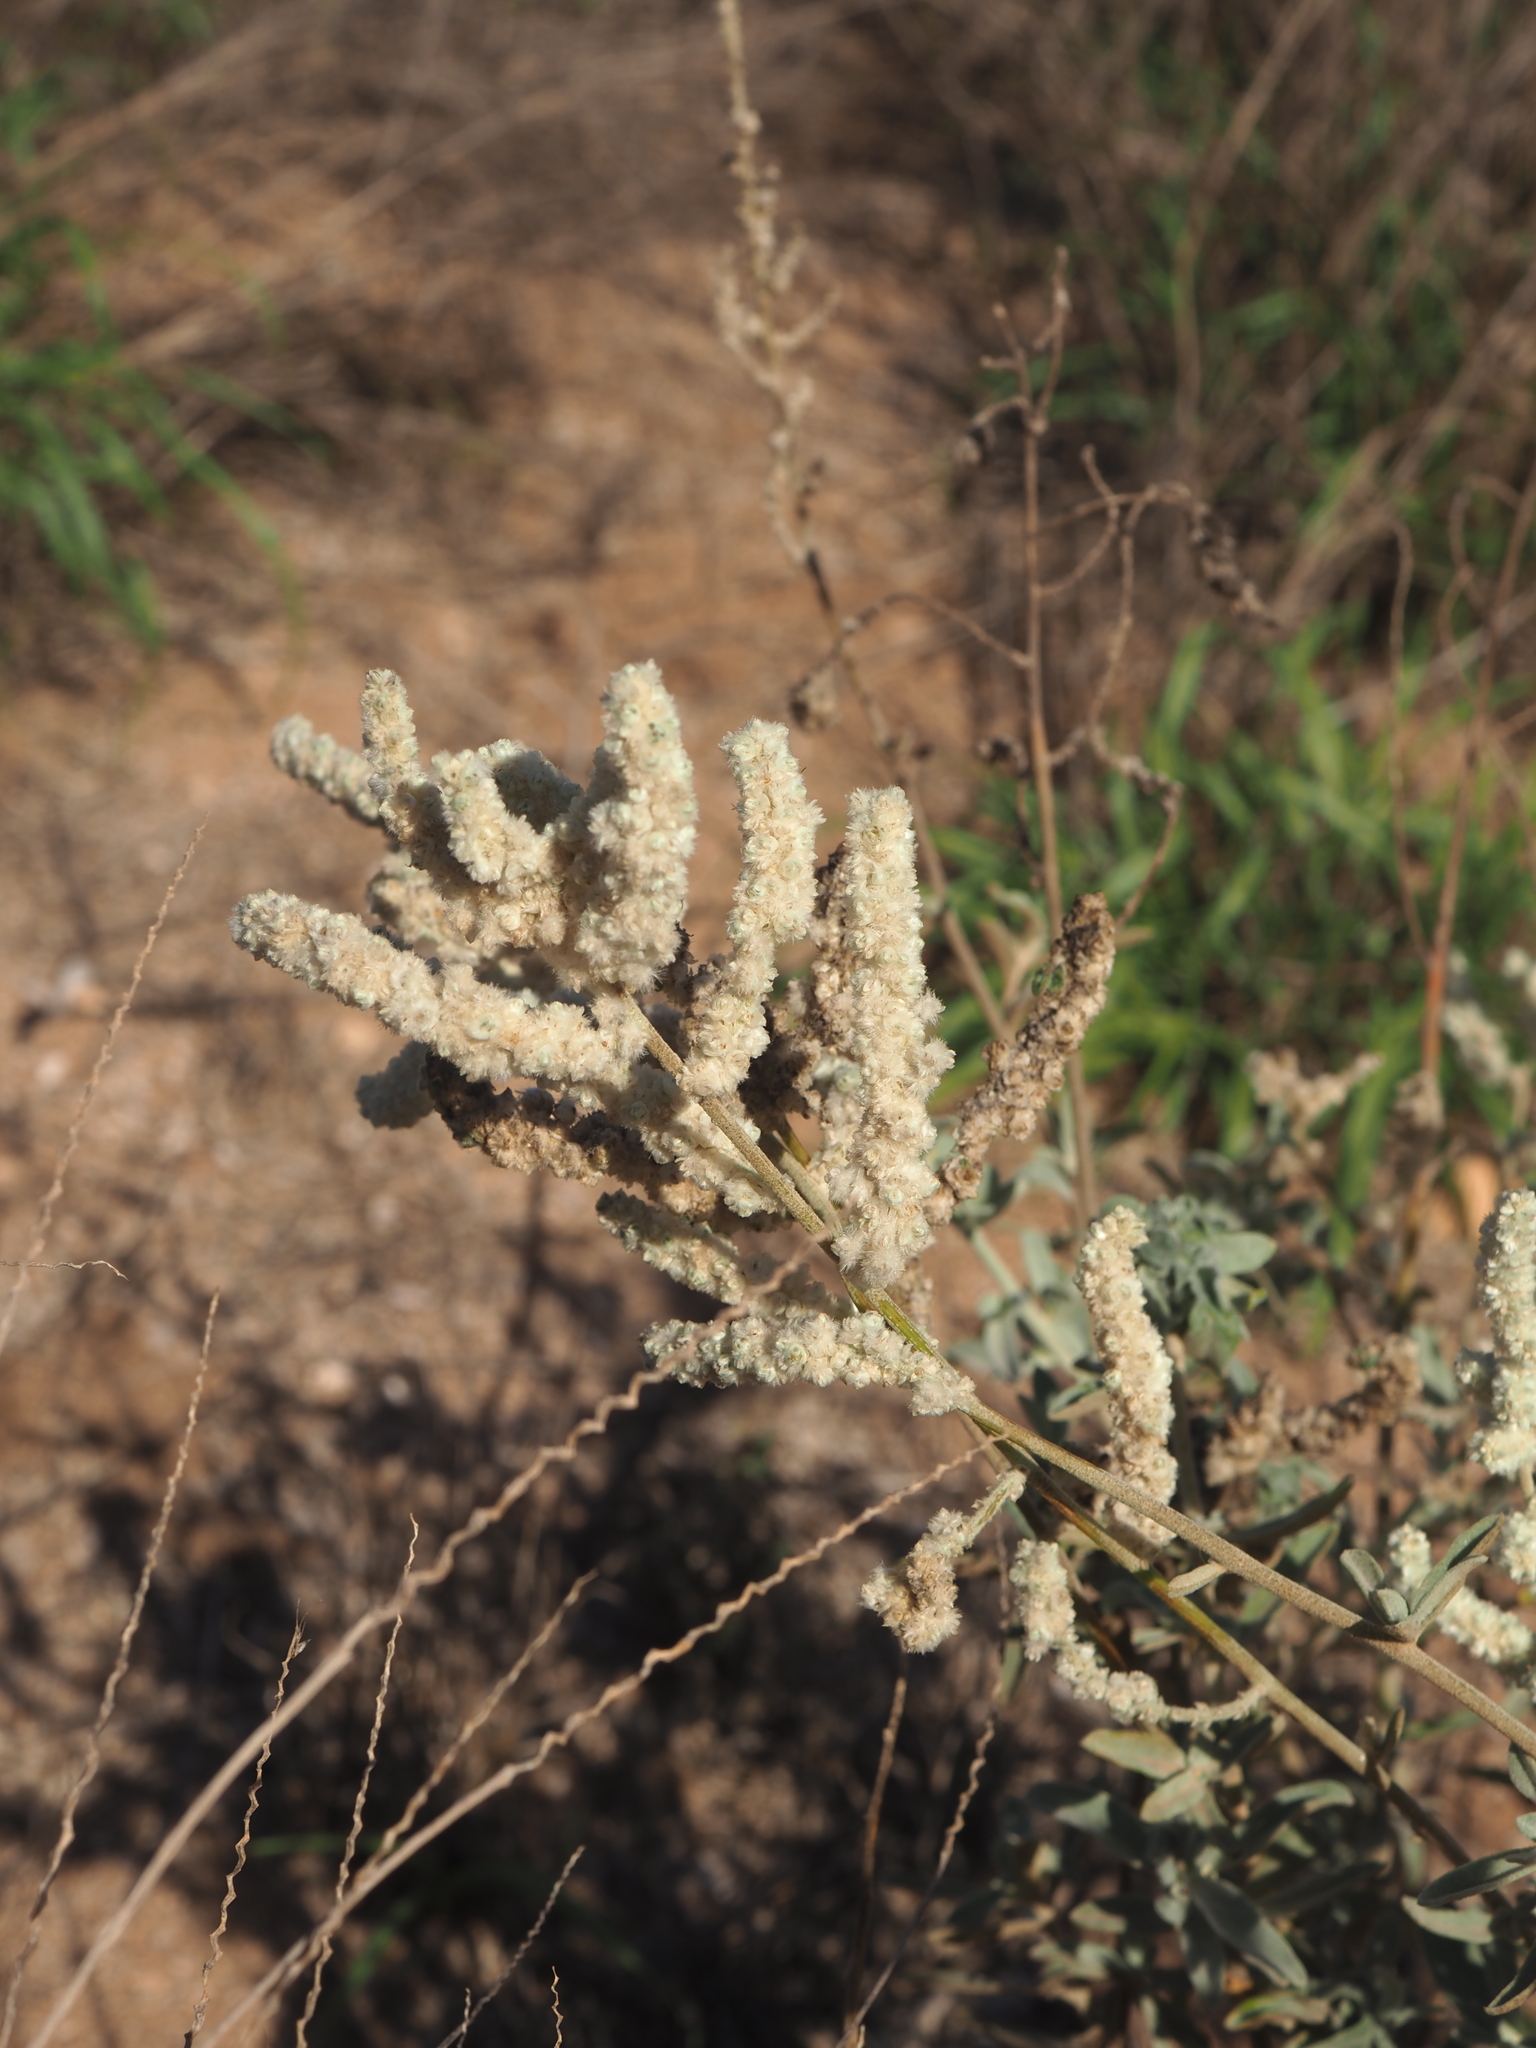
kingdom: Plantae
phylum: Tracheophyta
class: Magnoliopsida
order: Caryophyllales
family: Amaranthaceae
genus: Aerva
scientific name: Aerva javanica
